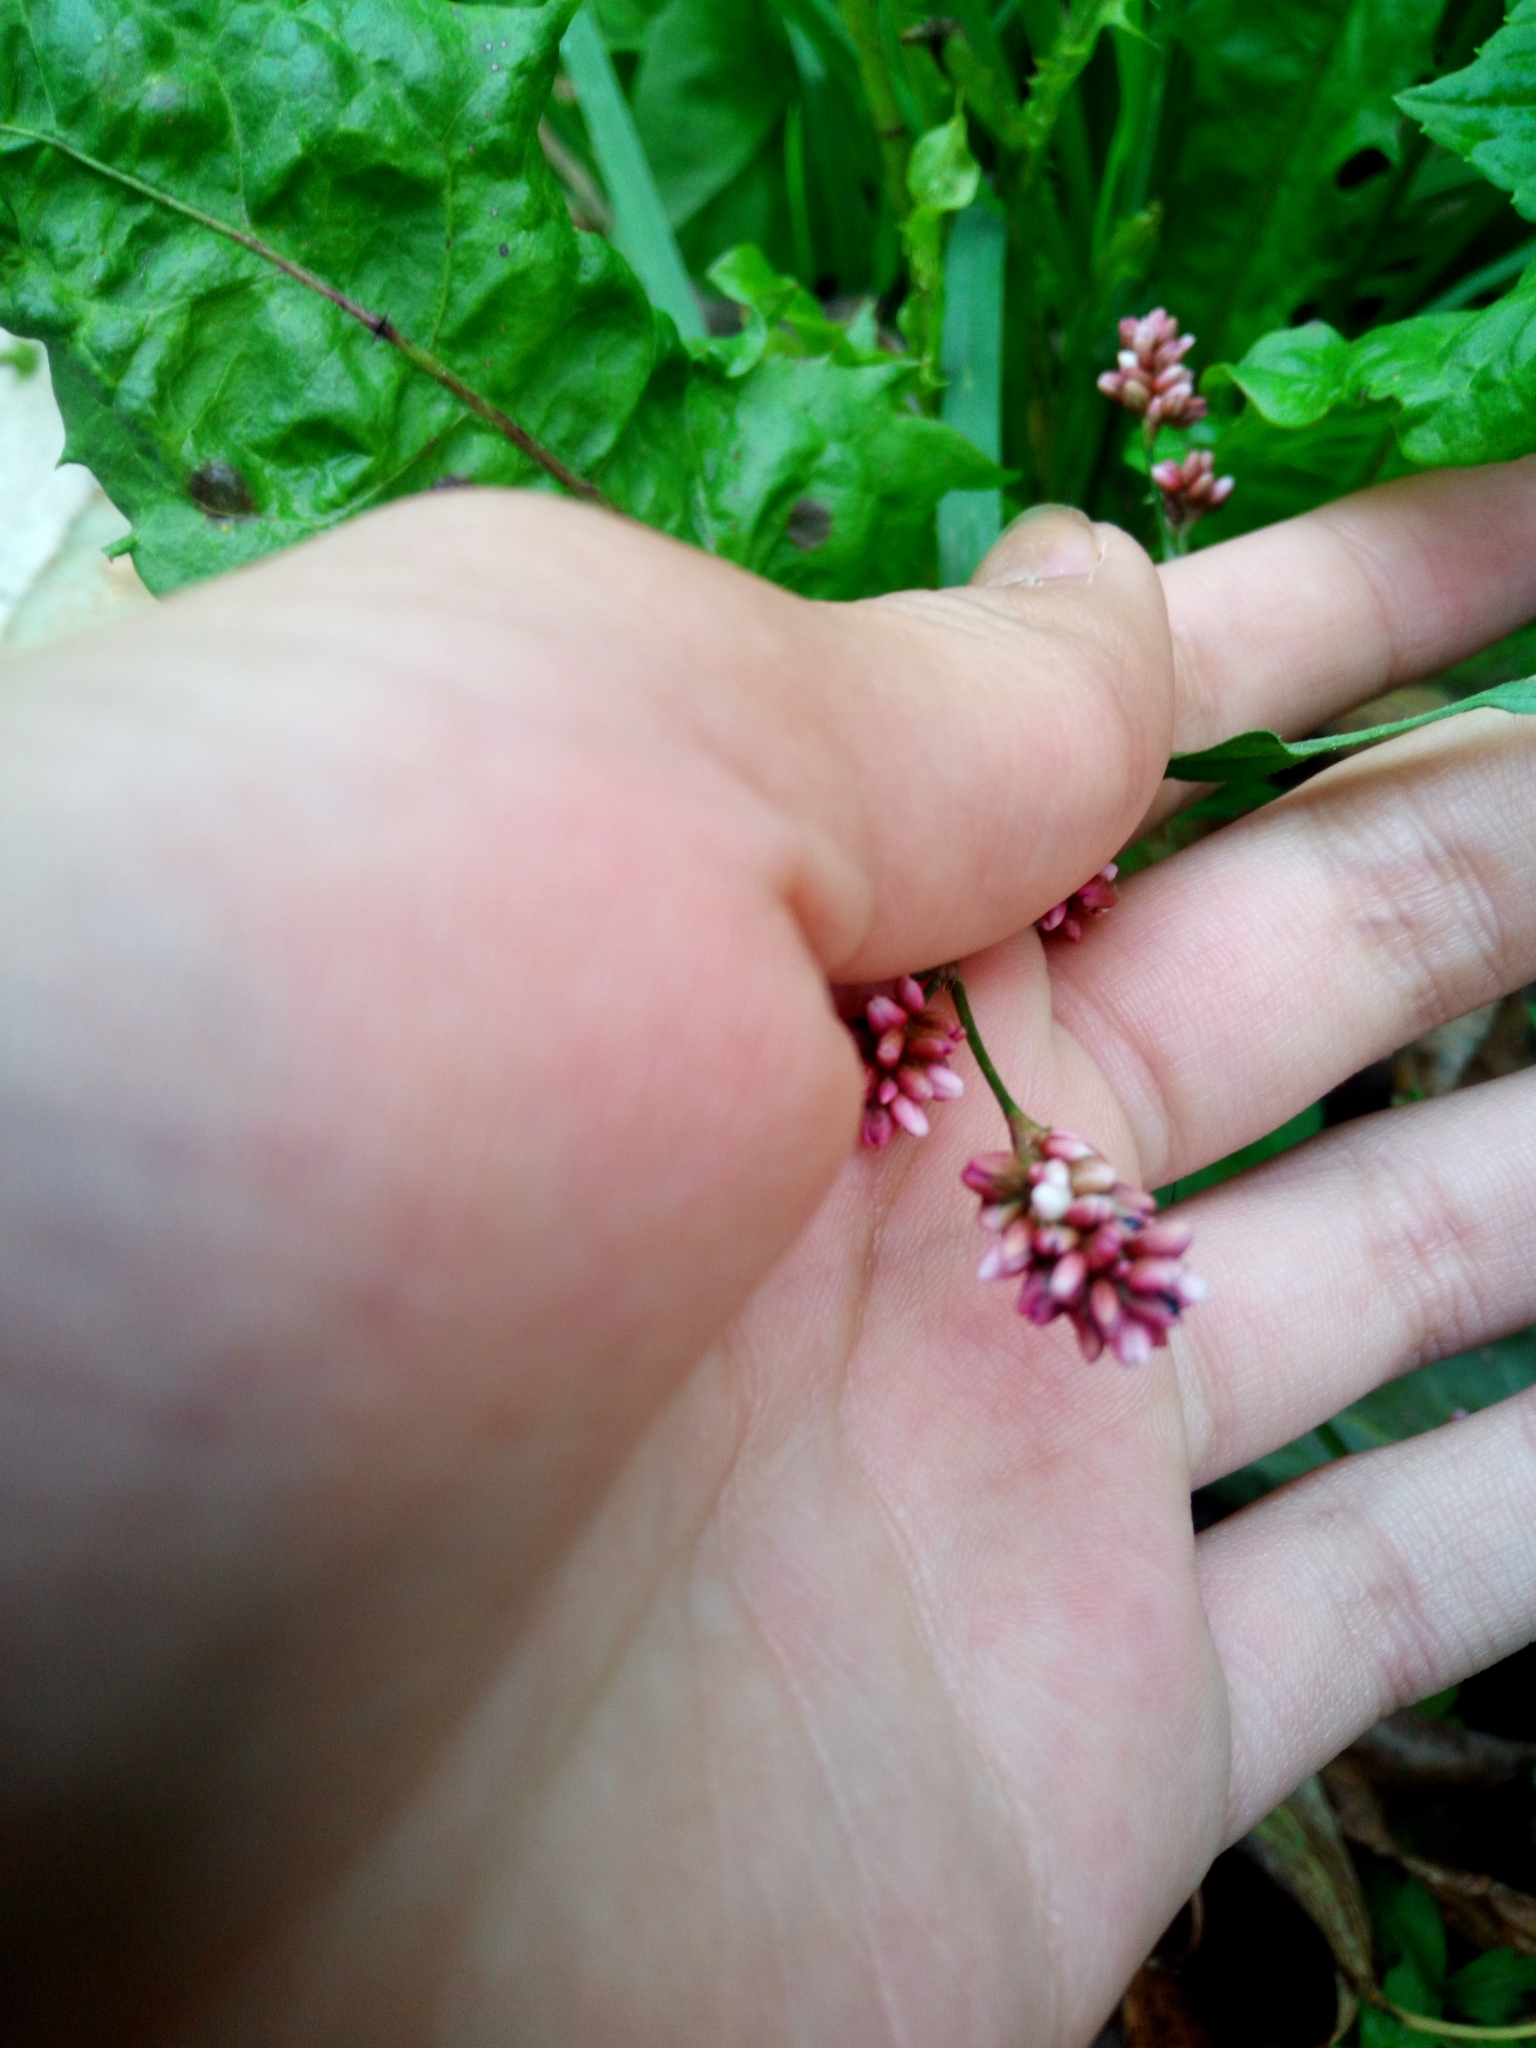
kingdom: Plantae
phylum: Tracheophyta
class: Magnoliopsida
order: Caryophyllales
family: Polygonaceae
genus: Persicaria
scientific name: Persicaria maculosa
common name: Redshank
